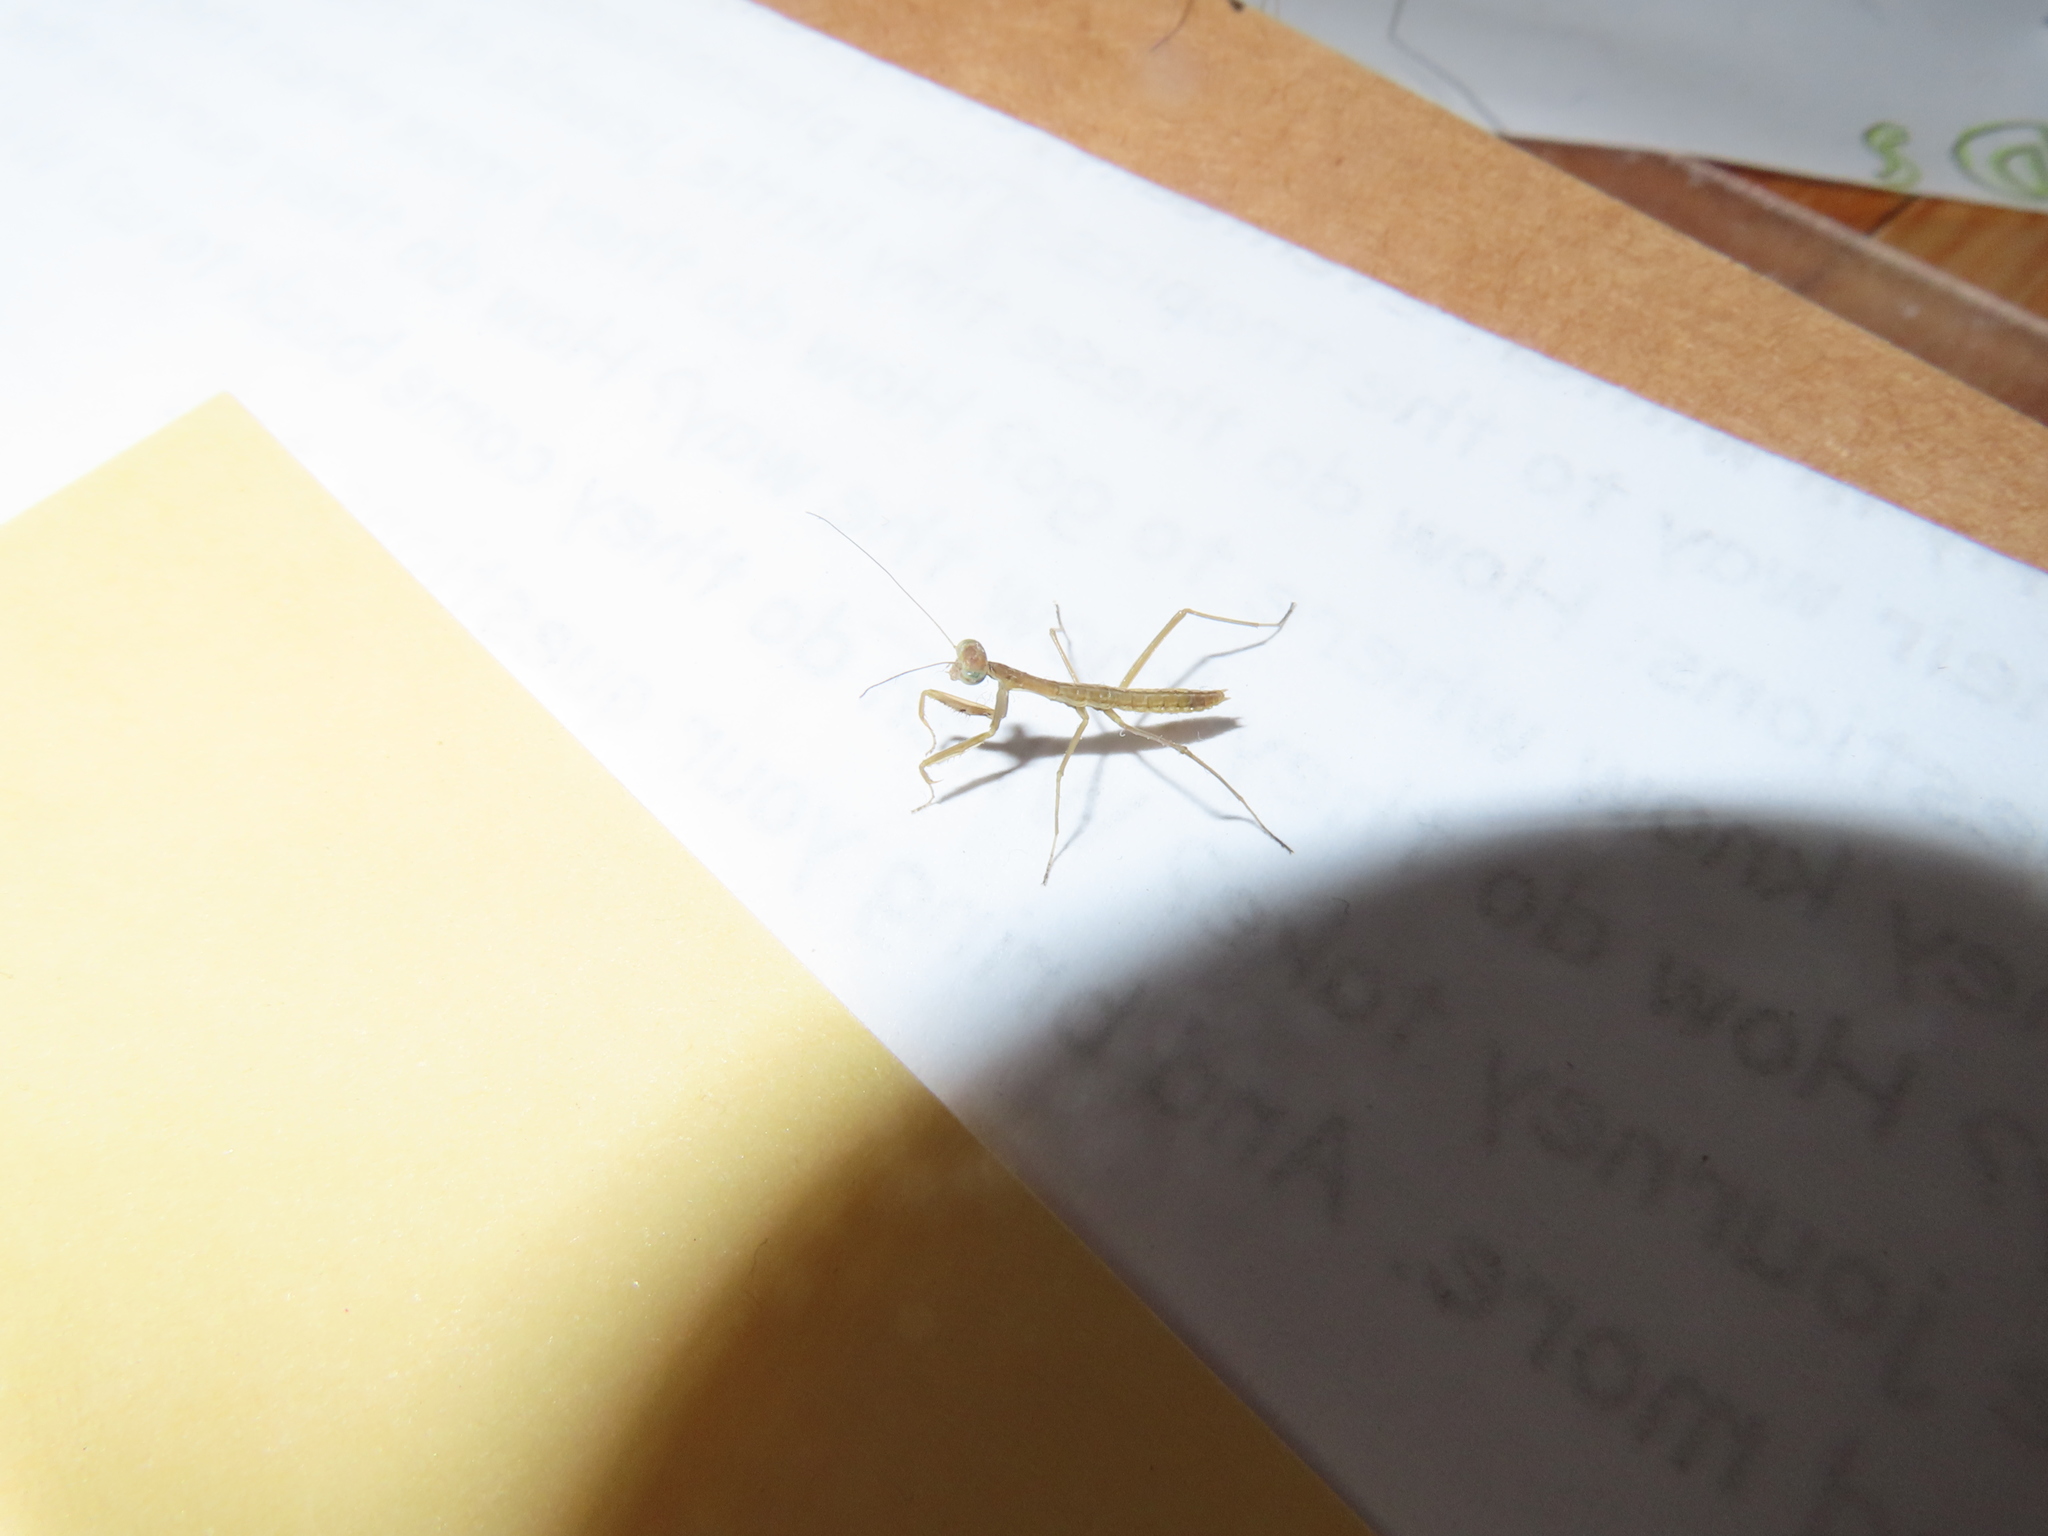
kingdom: Animalia
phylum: Arthropoda
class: Insecta
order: Mantodea
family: Mantidae
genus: Tenodera
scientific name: Tenodera sinensis
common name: Chinese mantis
